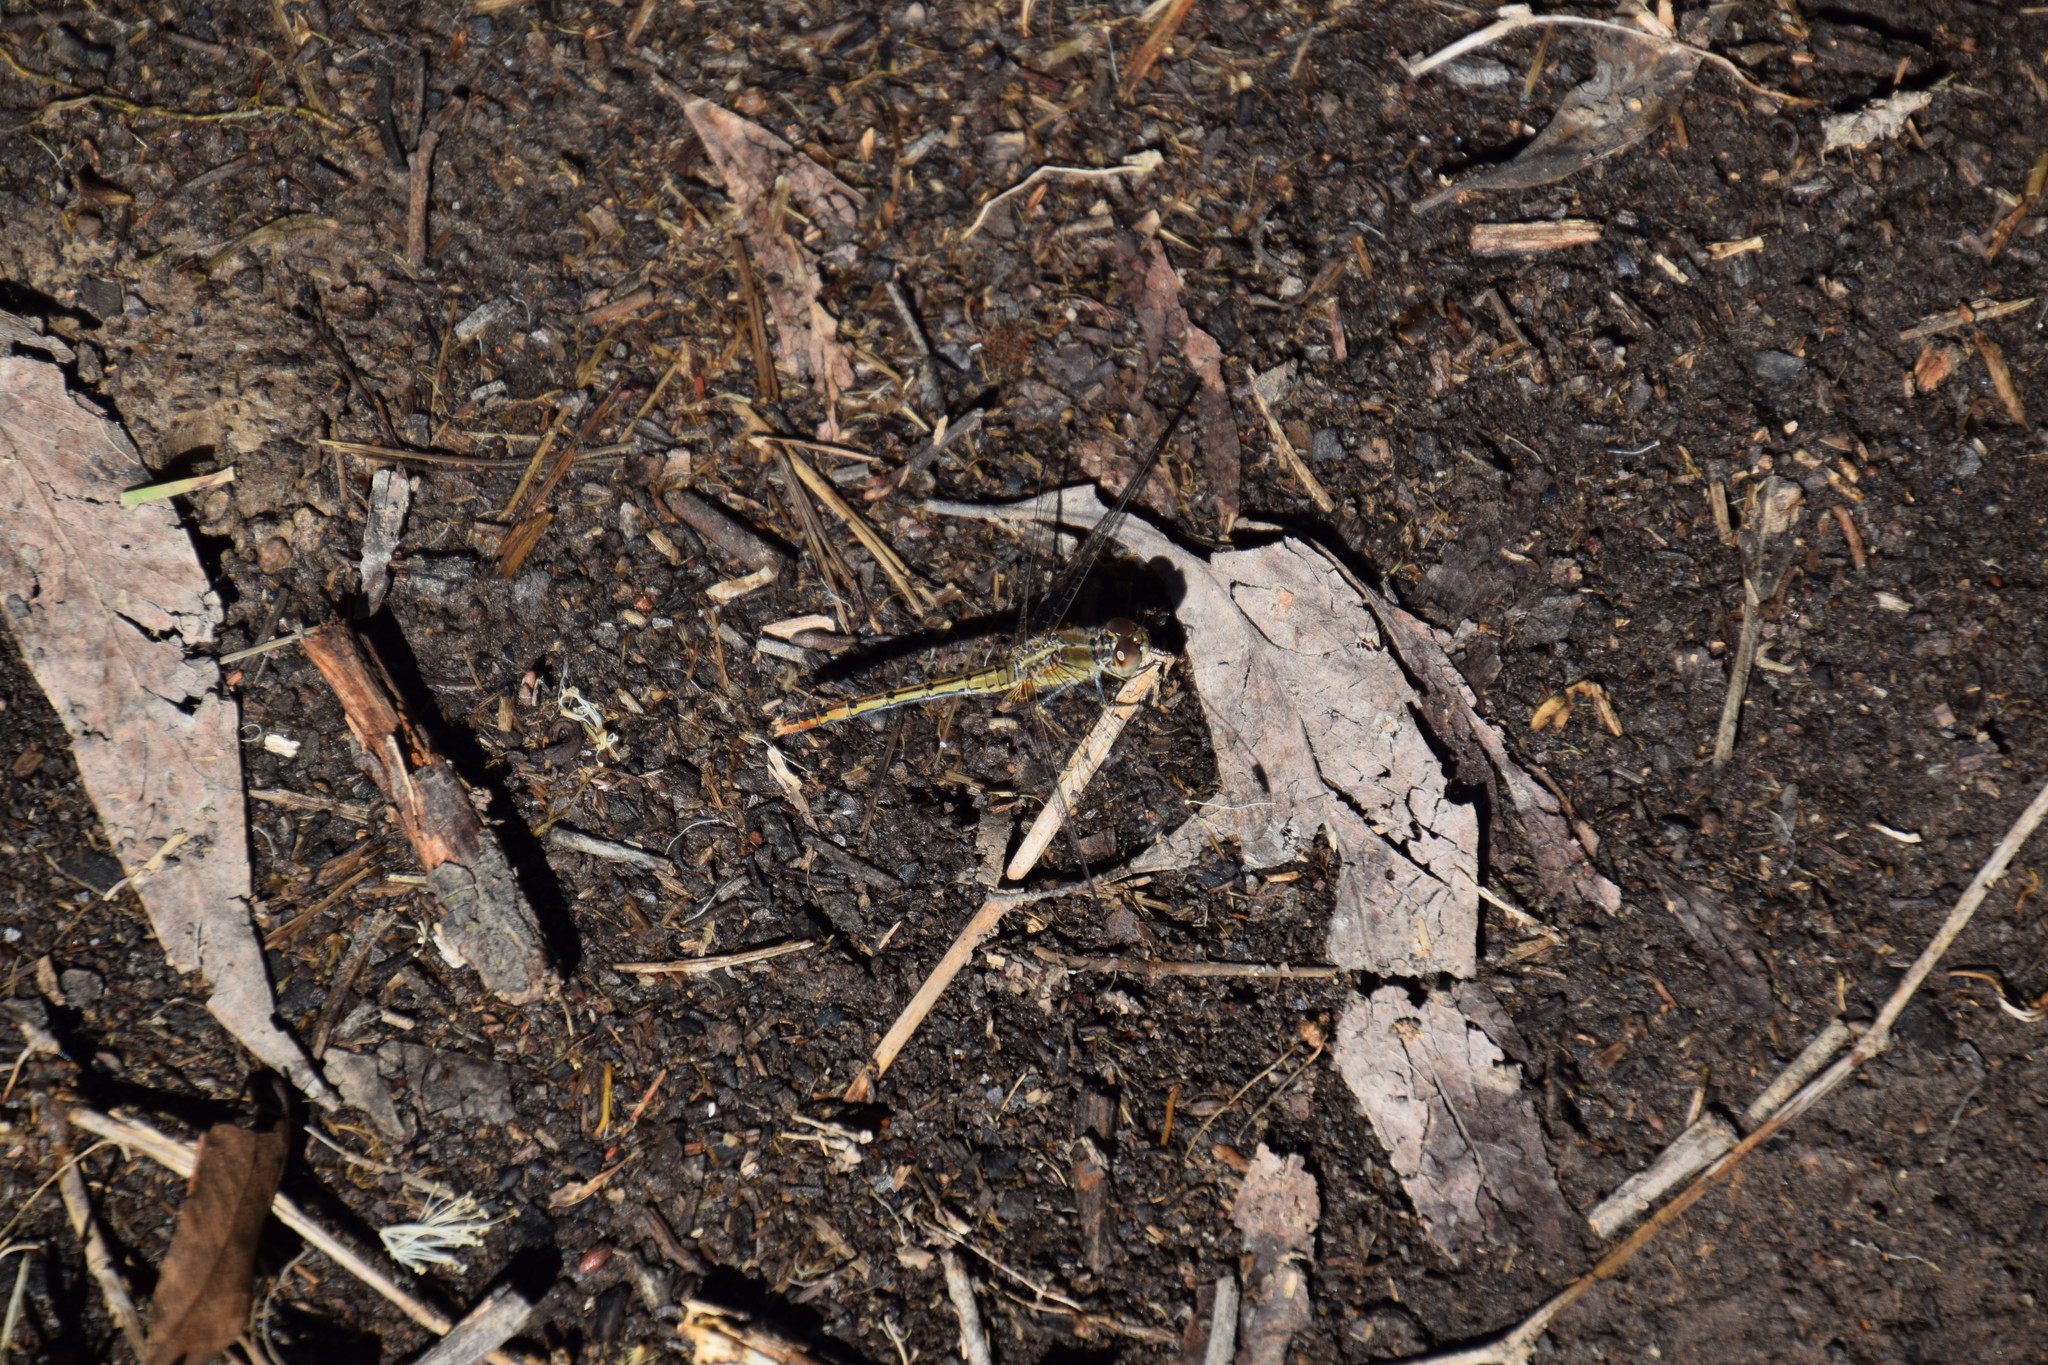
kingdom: Animalia
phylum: Arthropoda
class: Insecta
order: Odonata
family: Libellulidae
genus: Diplacodes
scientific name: Diplacodes bipunctata
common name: Red percher dragonfly
